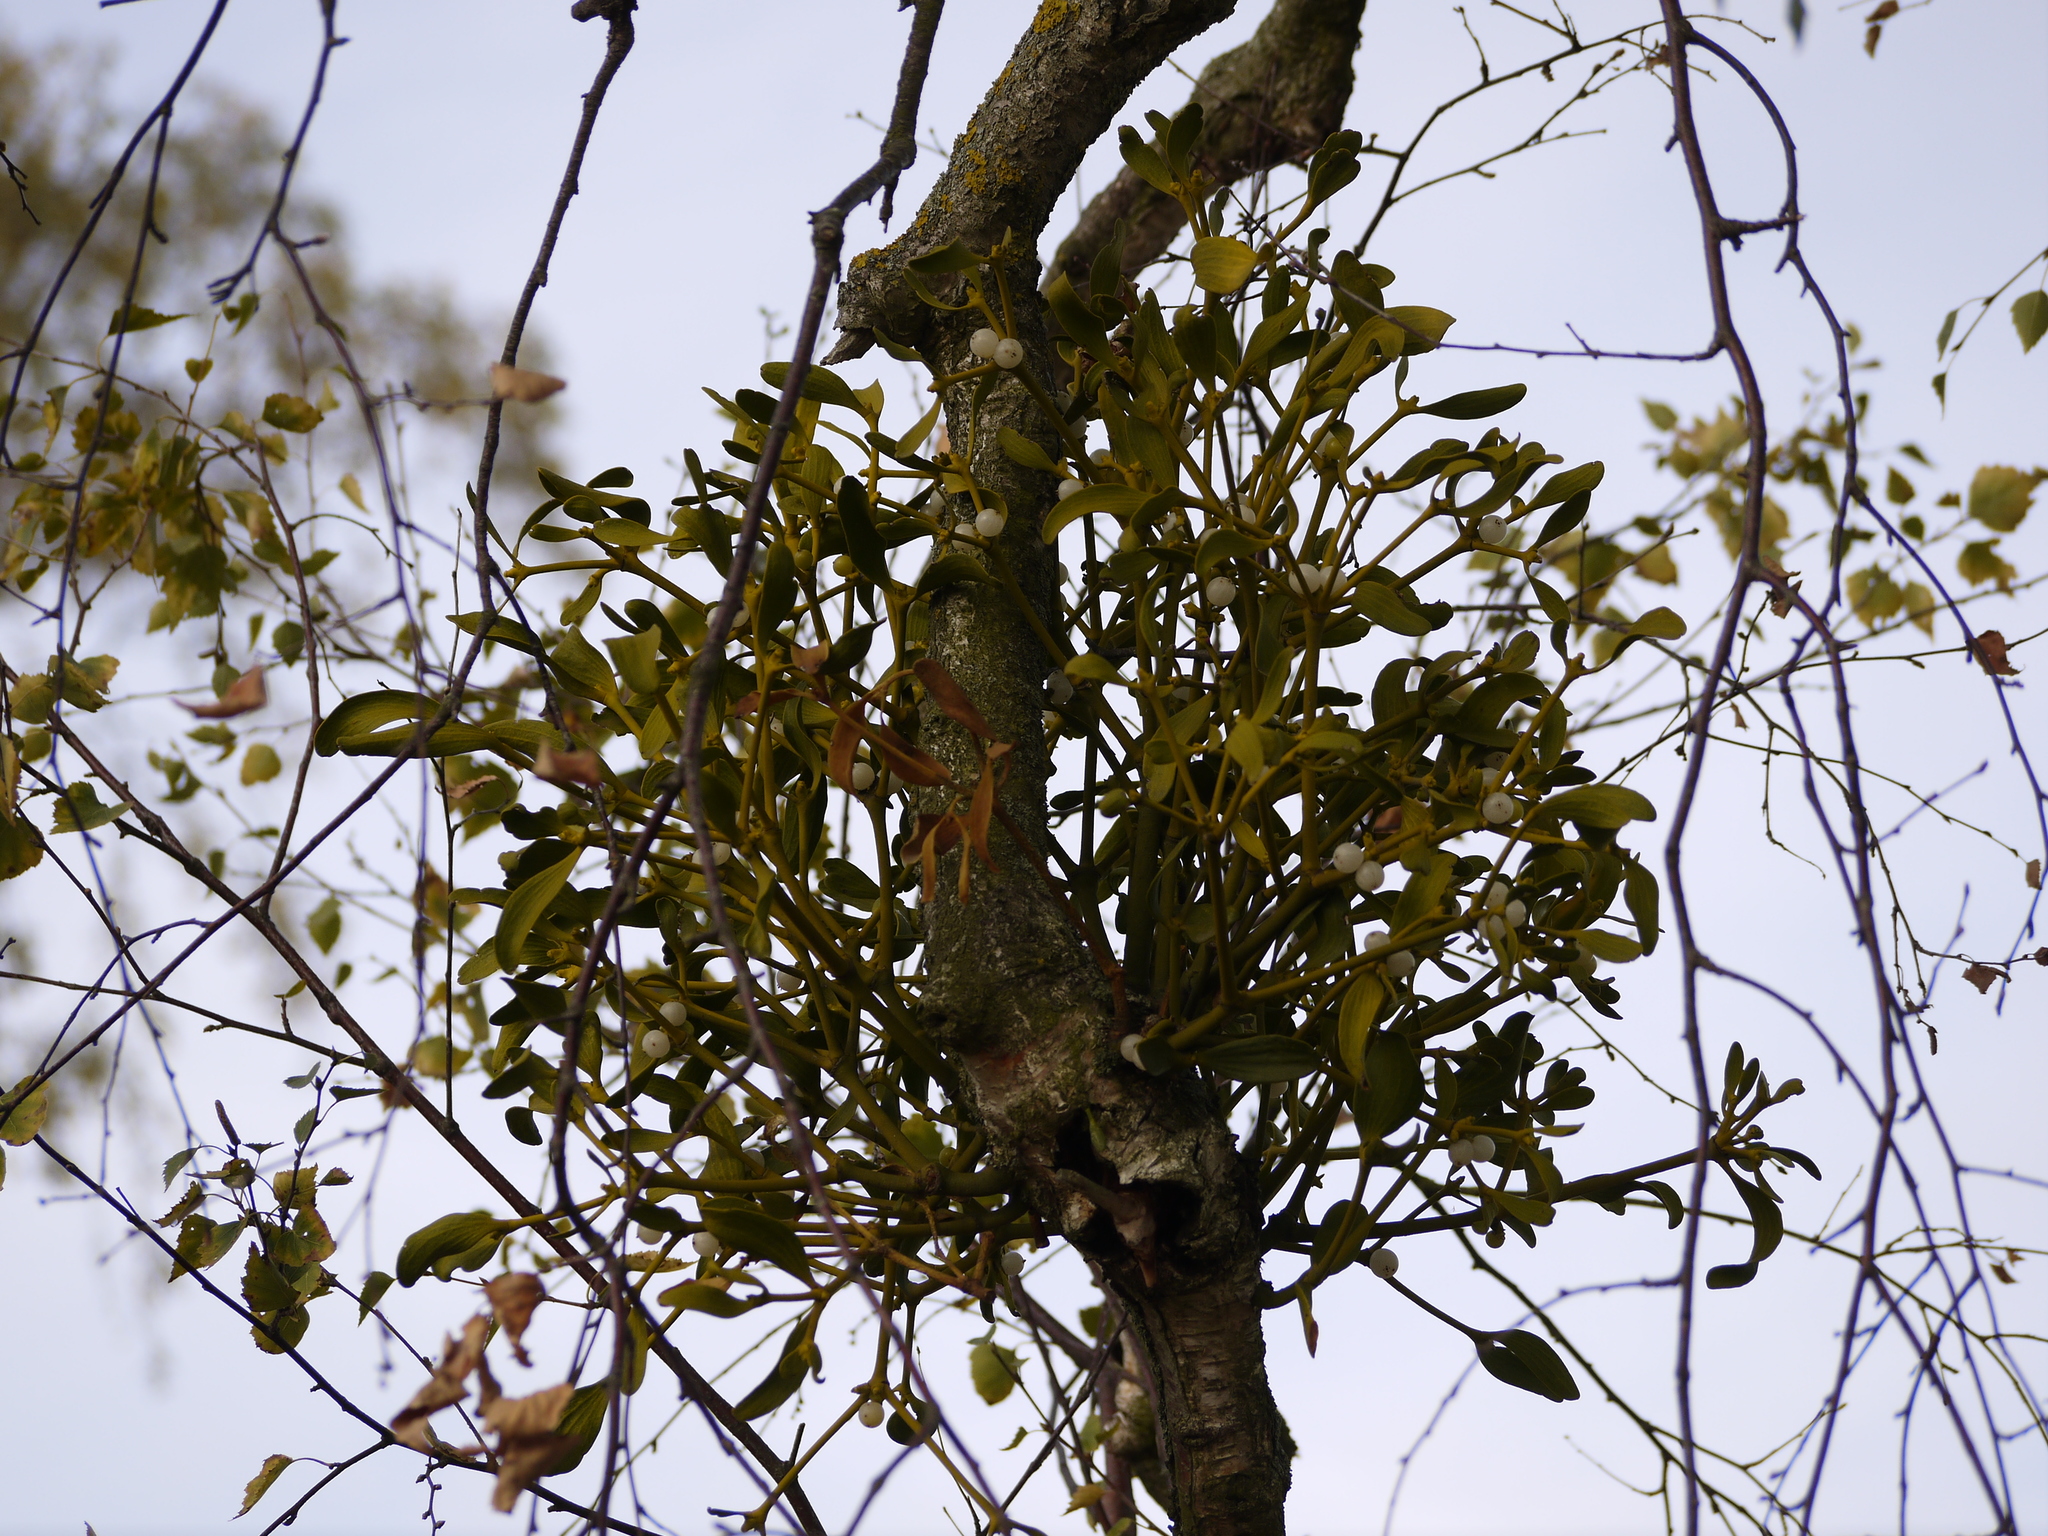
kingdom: Plantae
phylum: Tracheophyta
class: Magnoliopsida
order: Santalales
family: Viscaceae
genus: Viscum
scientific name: Viscum album
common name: Mistletoe
